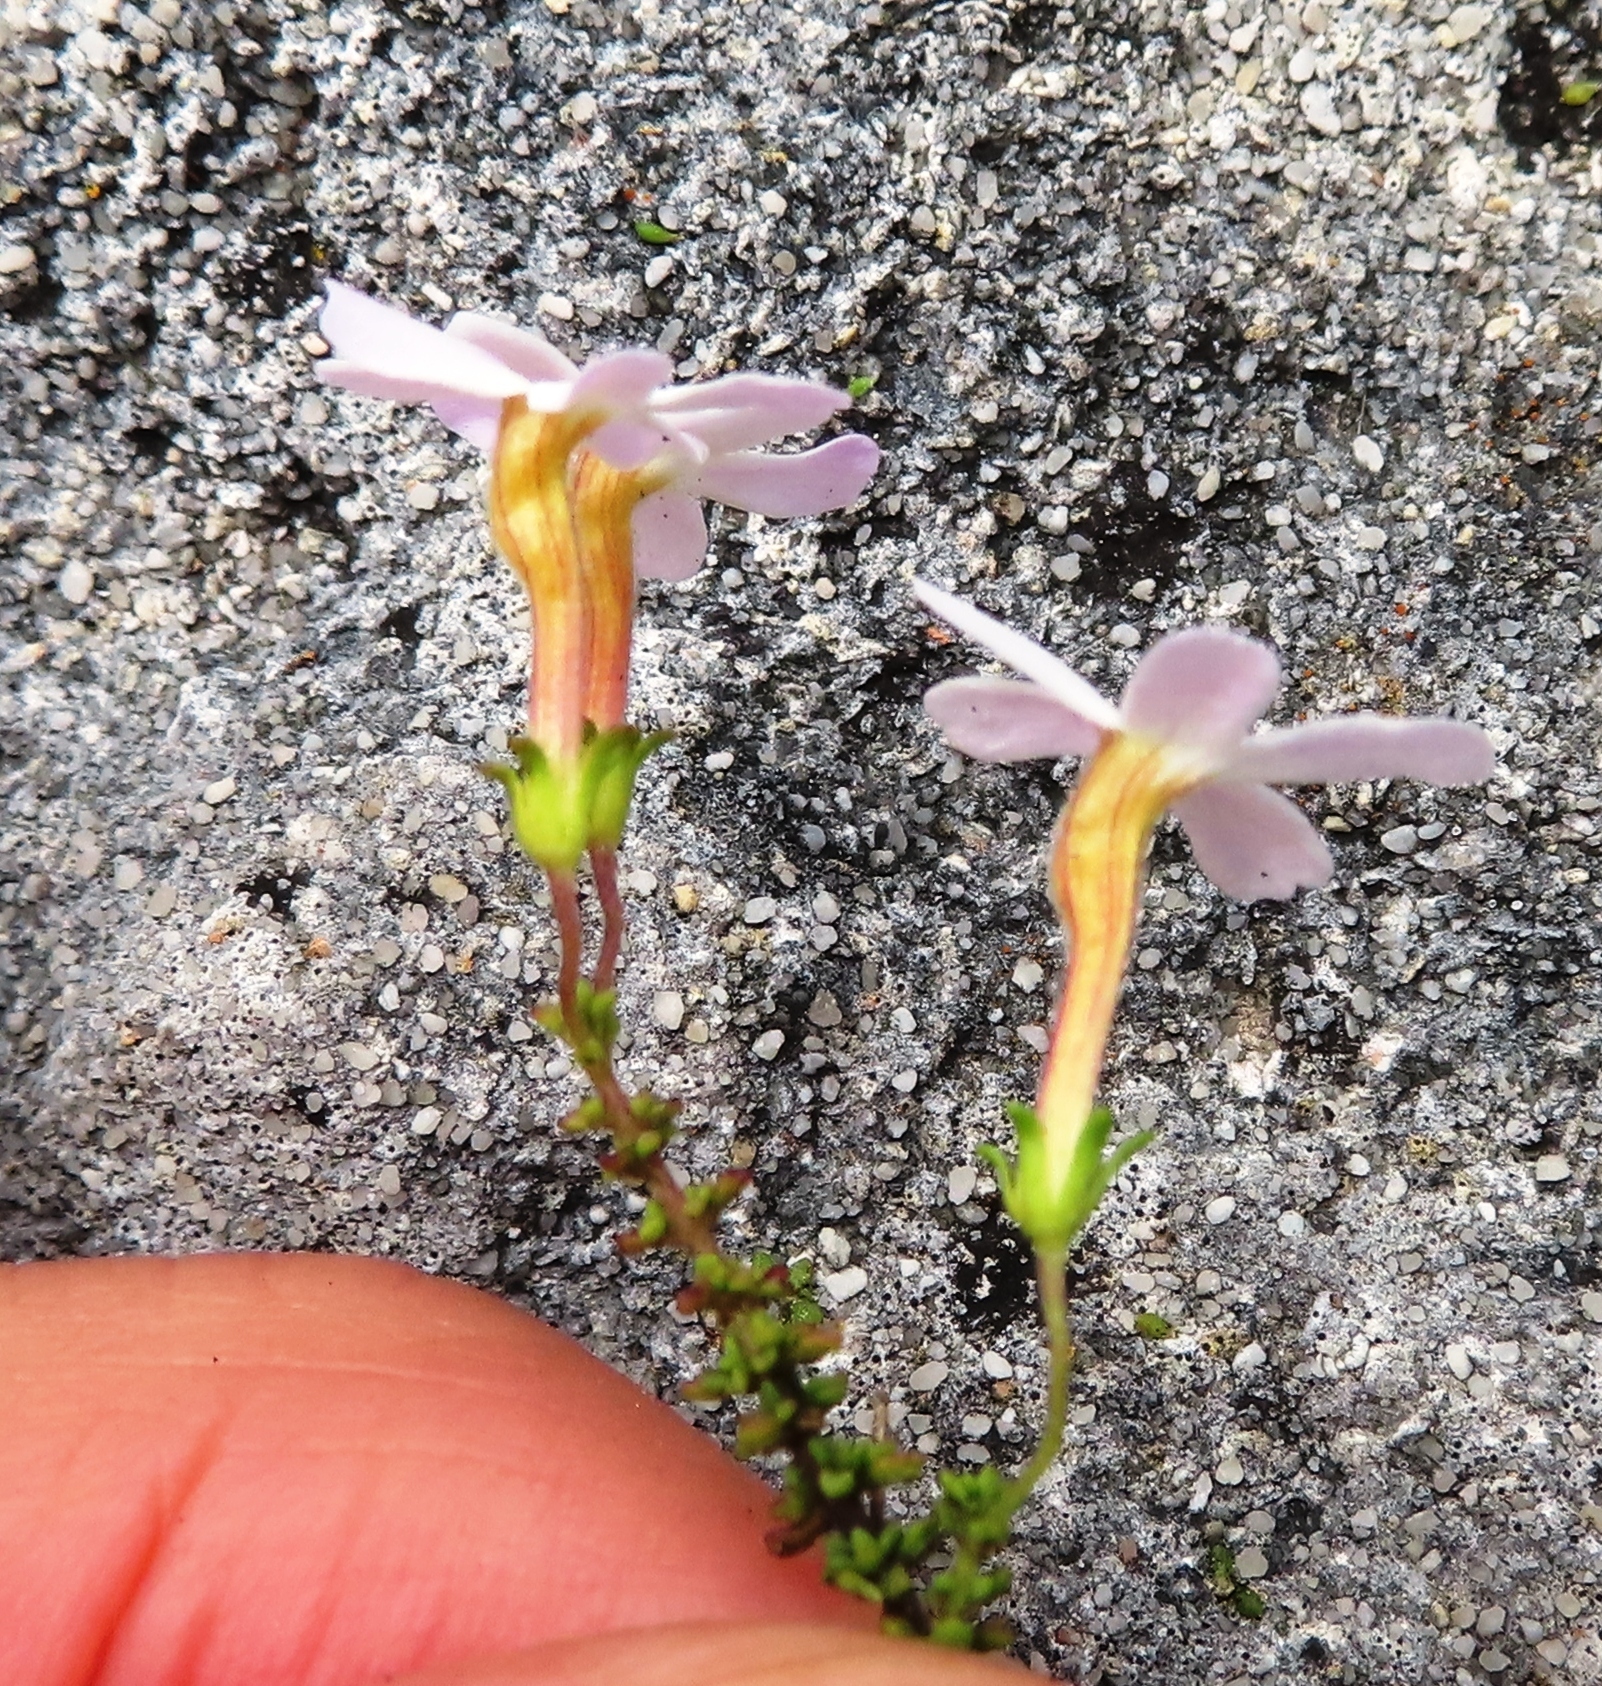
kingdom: Plantae
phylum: Tracheophyta
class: Magnoliopsida
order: Lamiales
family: Scrophulariaceae
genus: Jamesbrittenia
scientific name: Jamesbrittenia calciphila
